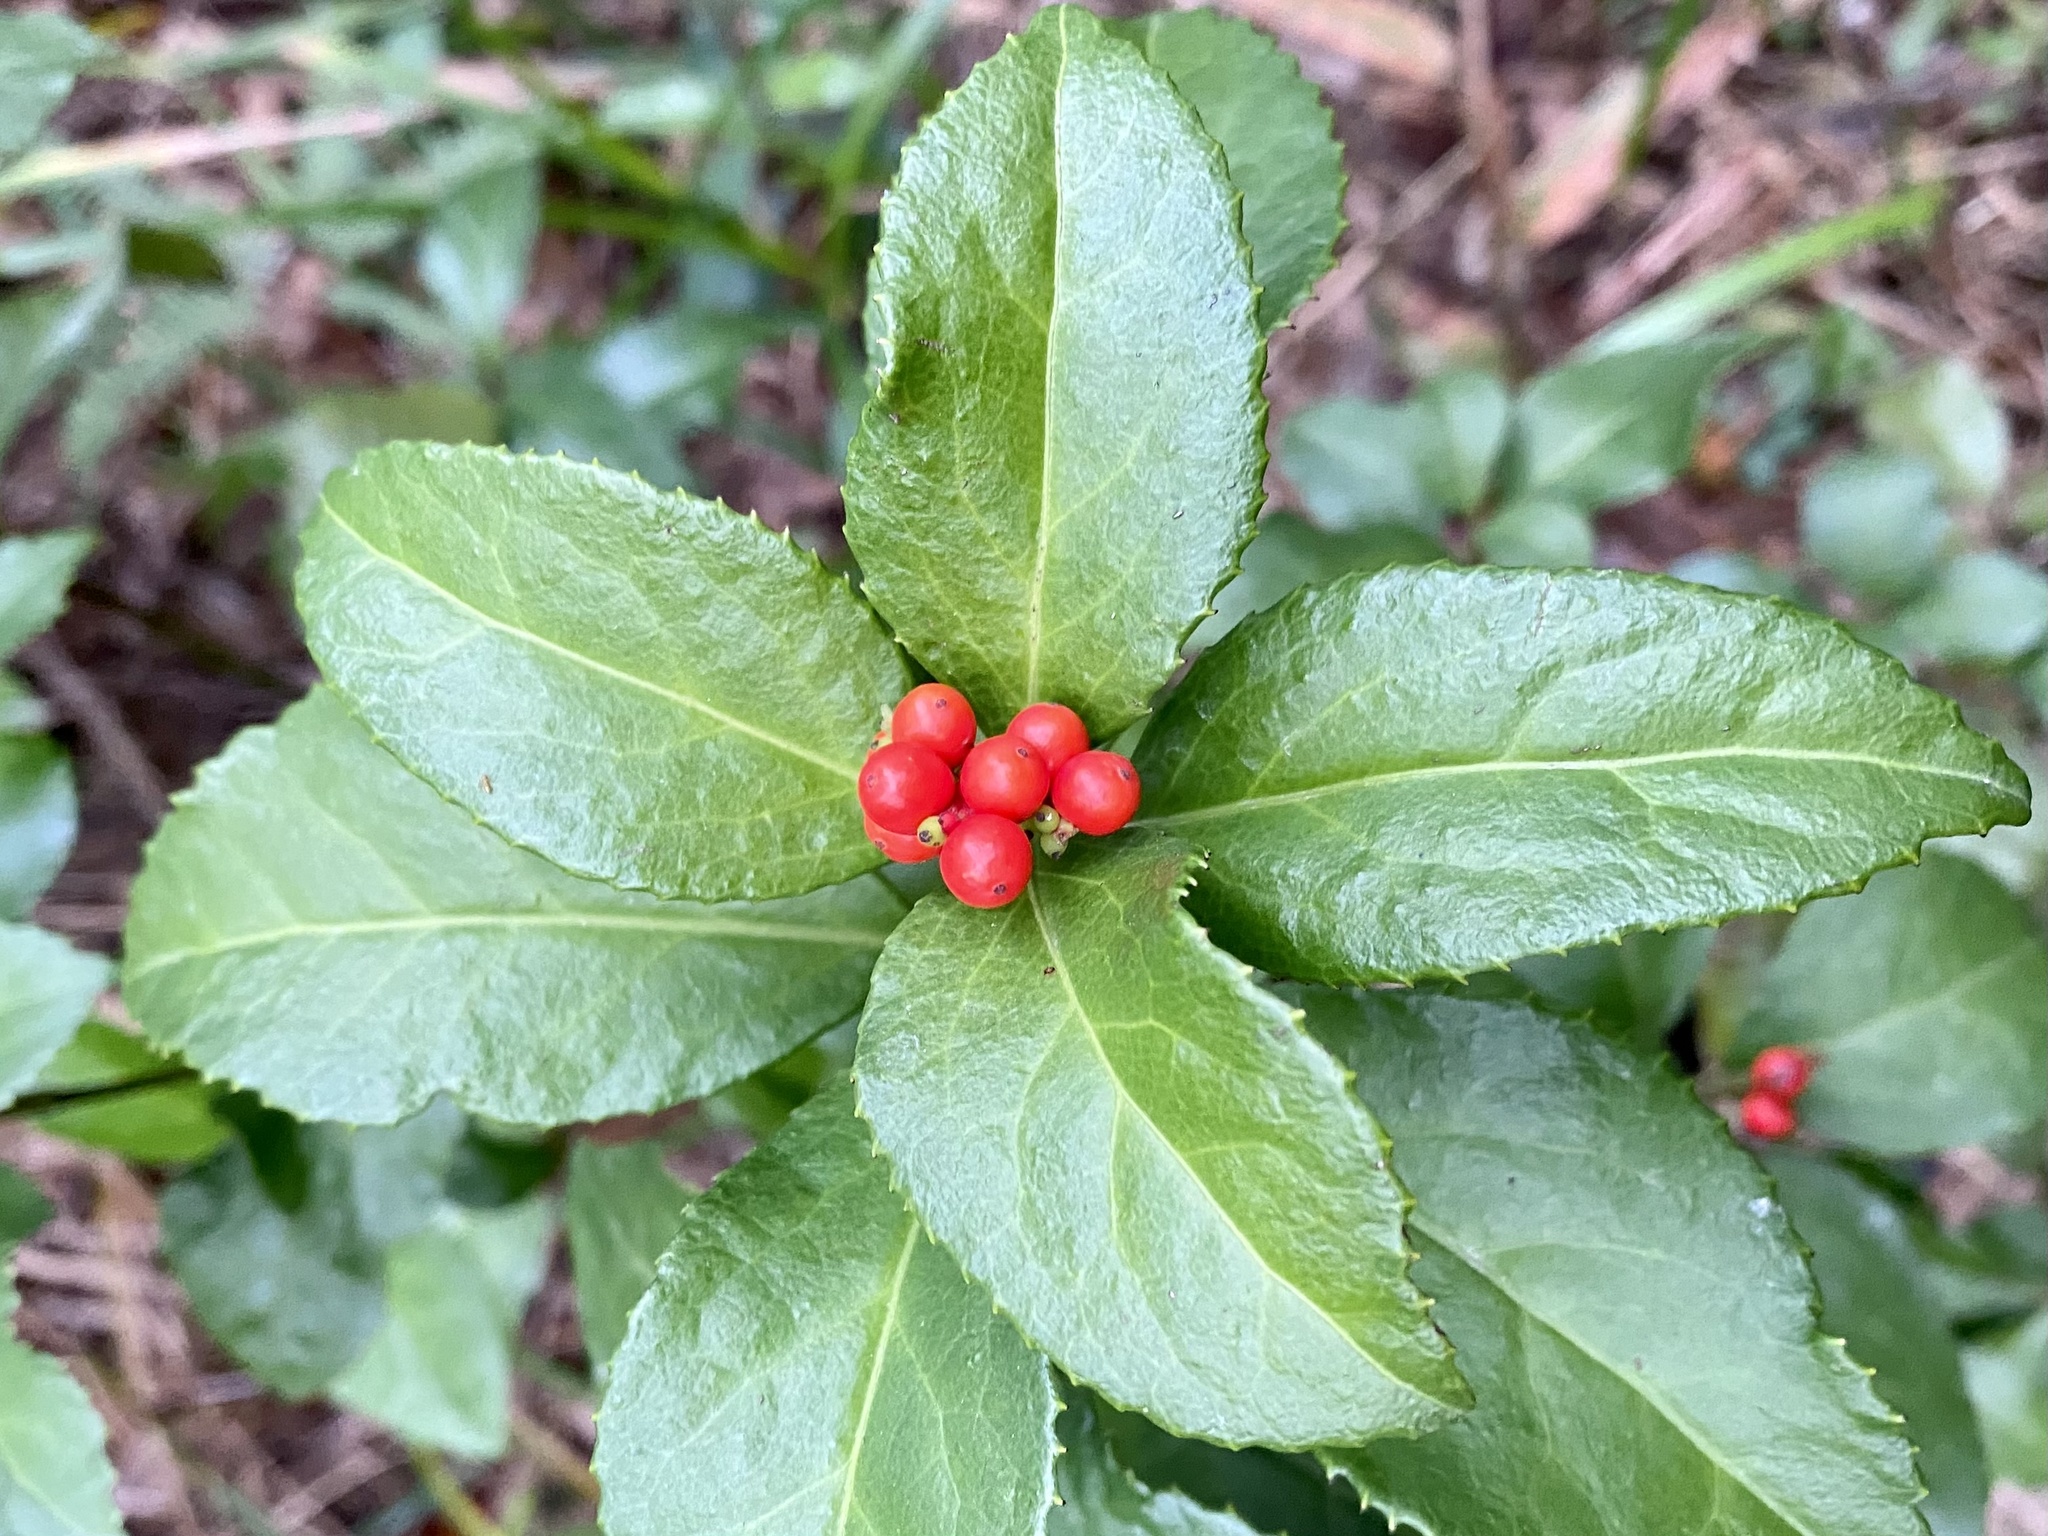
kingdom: Plantae
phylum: Tracheophyta
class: Magnoliopsida
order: Chloranthales
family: Chloranthaceae
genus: Sarcandra
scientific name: Sarcandra glabra
